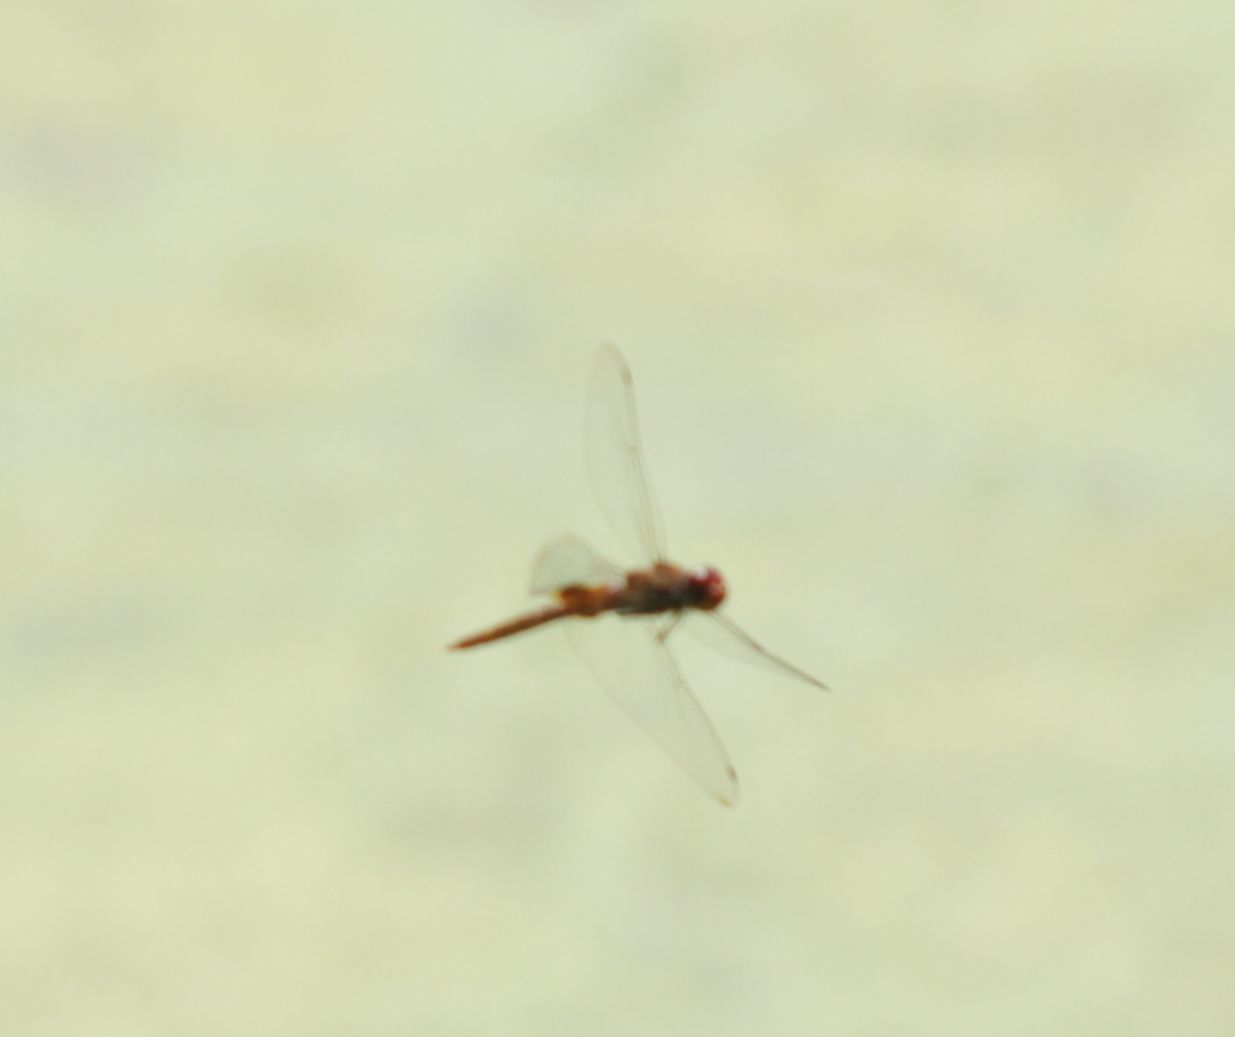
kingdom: Animalia
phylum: Arthropoda
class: Insecta
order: Odonata
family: Libellulidae
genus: Pantala
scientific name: Pantala hymenaea
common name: Spot-winged glider
